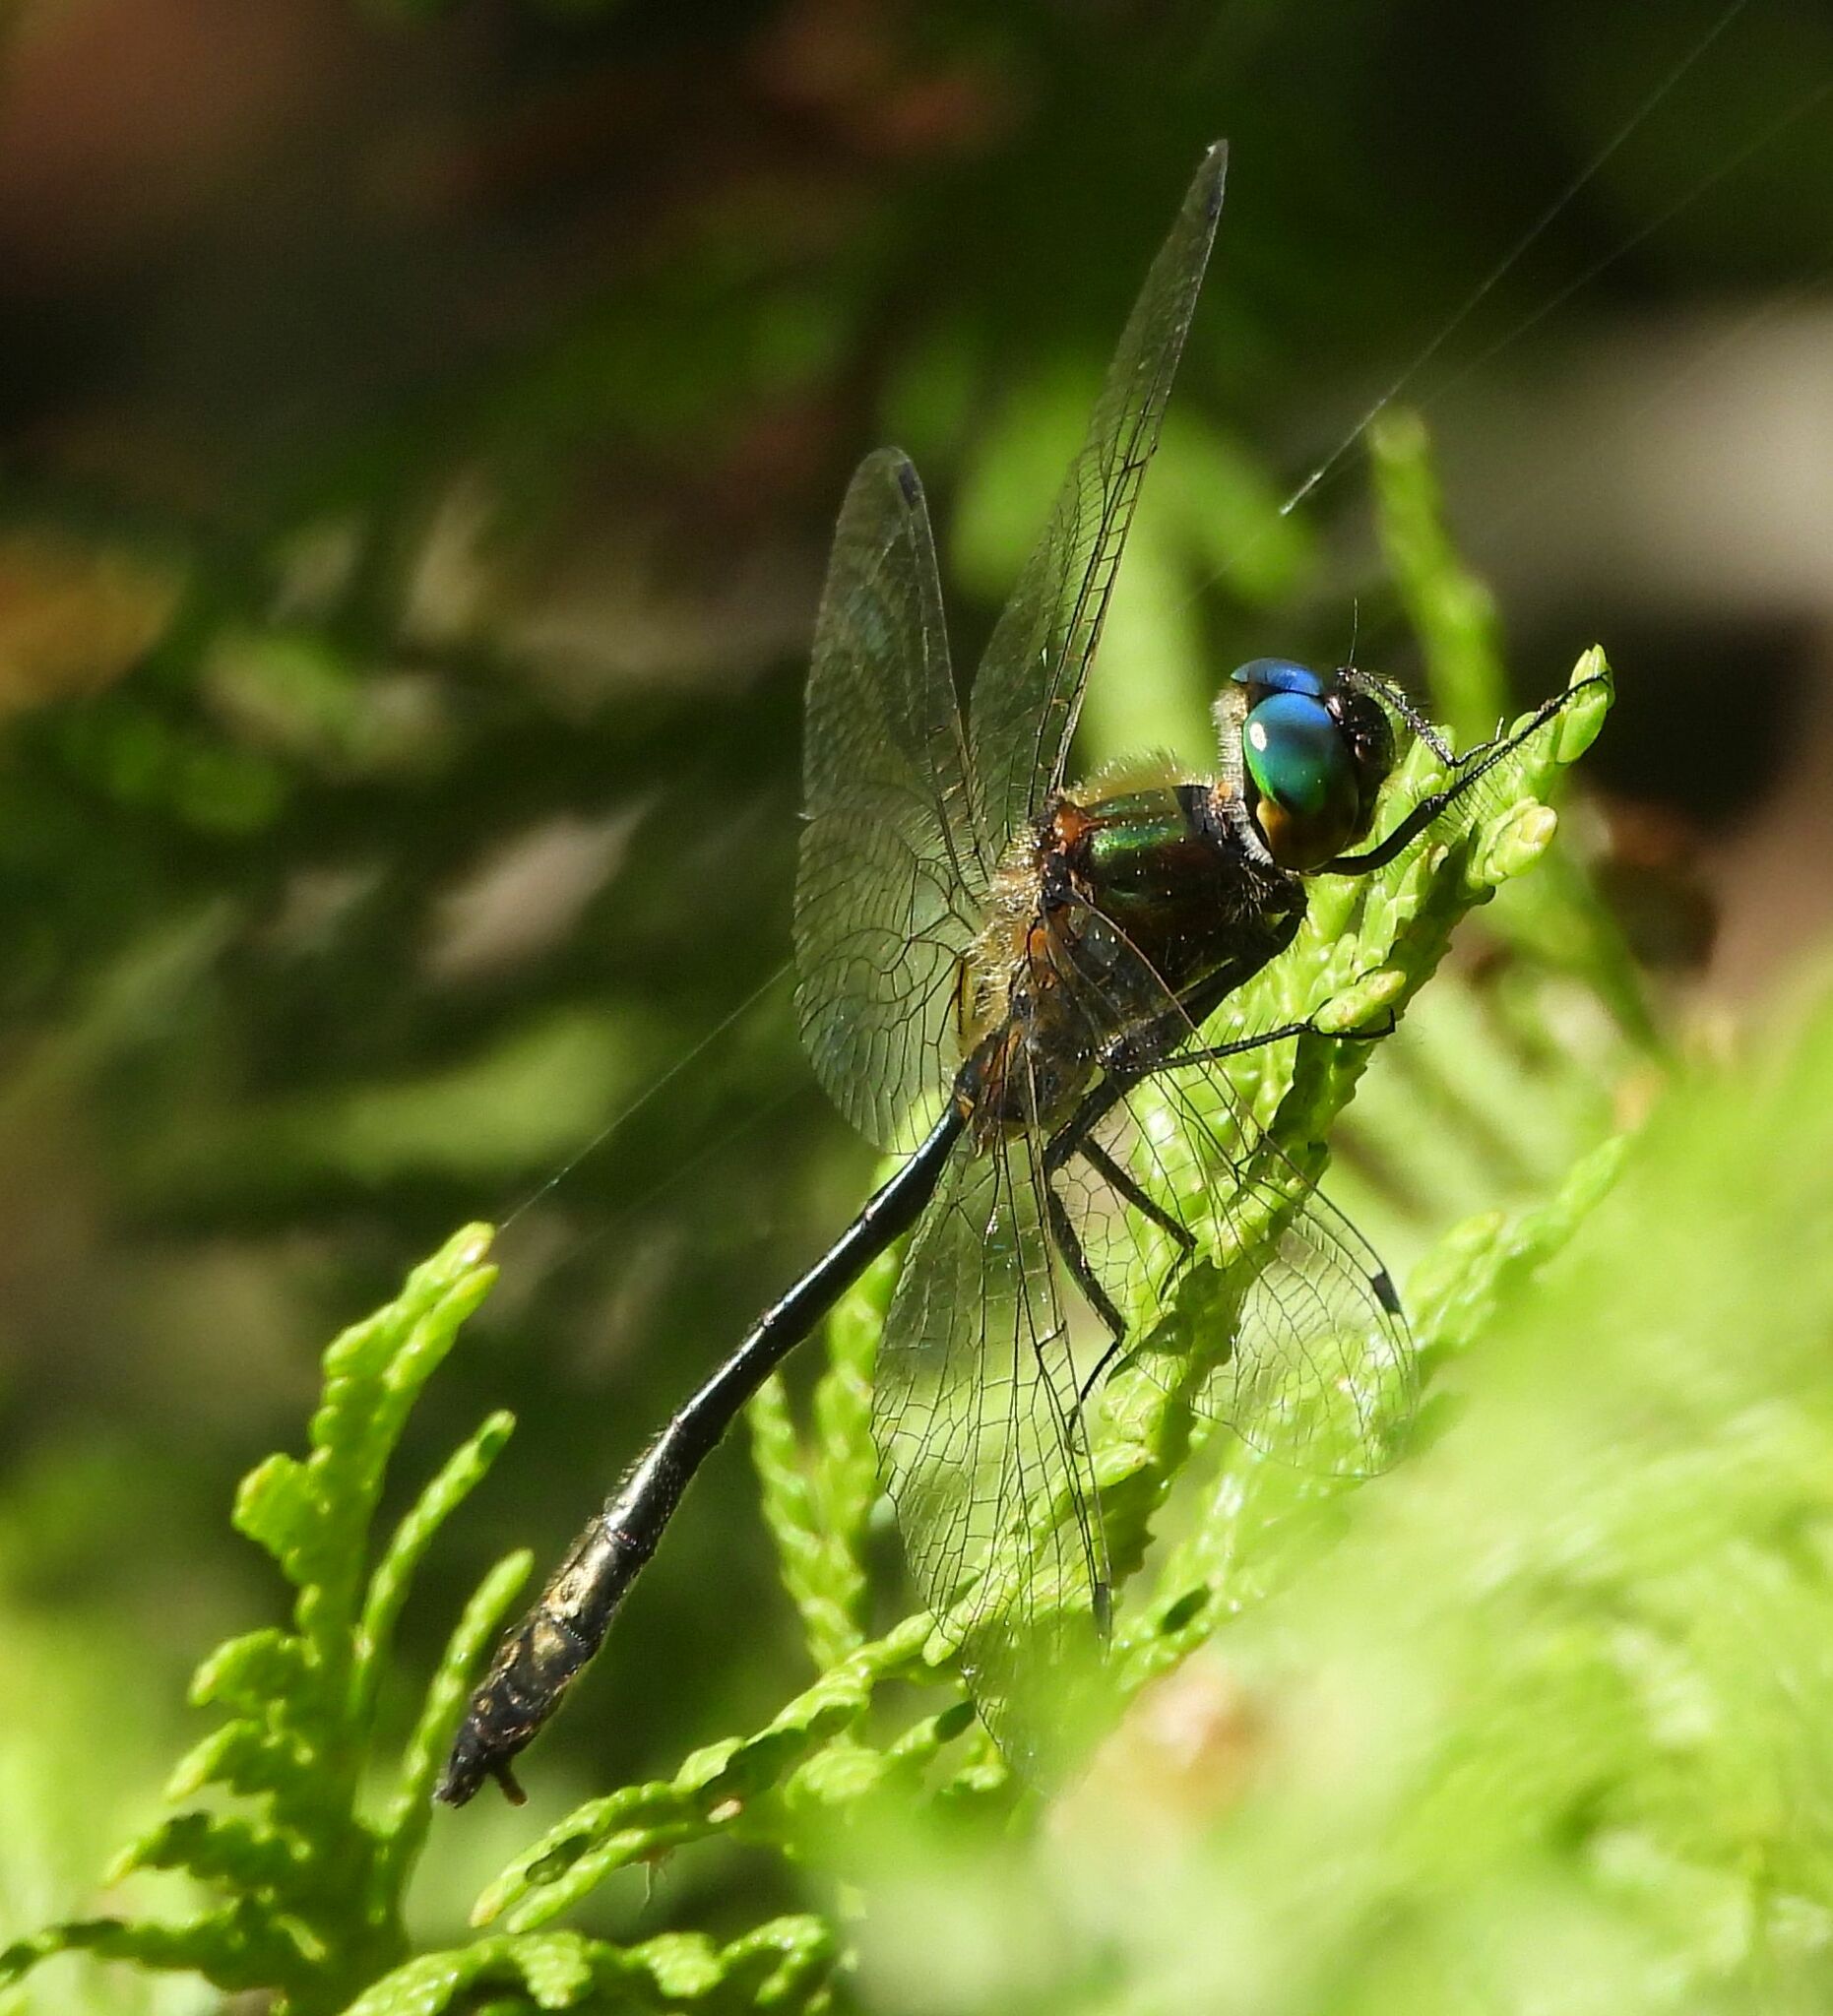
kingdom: Animalia
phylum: Arthropoda
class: Insecta
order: Odonata
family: Corduliidae
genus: Dorocordulia
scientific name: Dorocordulia libera
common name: Racket-tailed emerald
